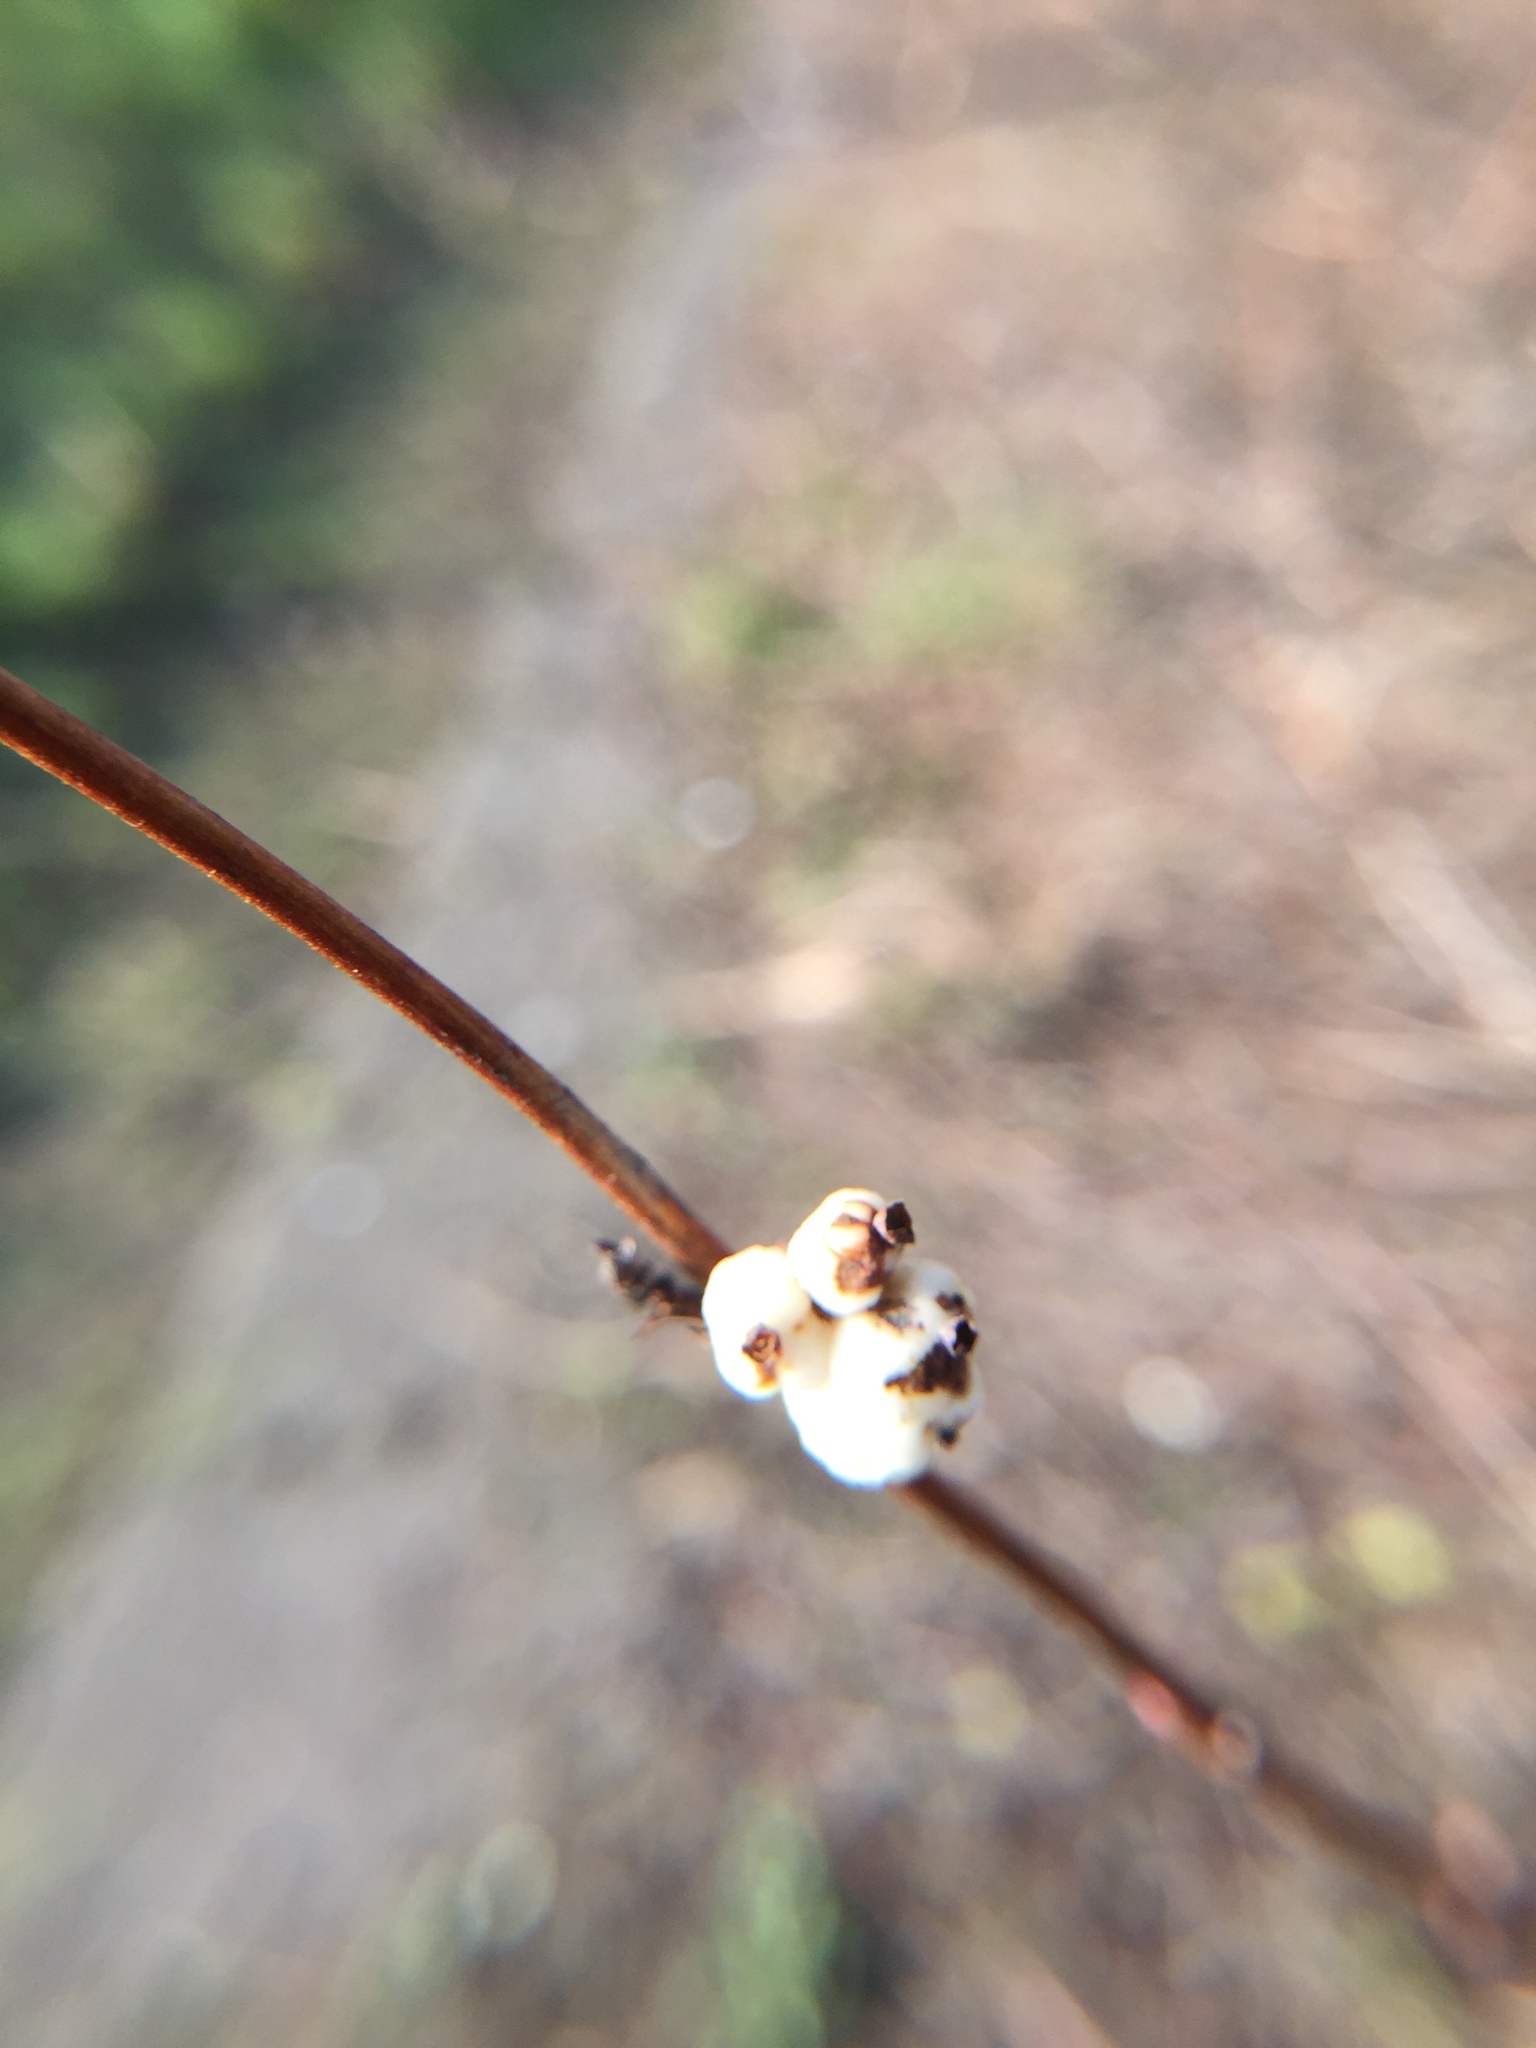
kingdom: Plantae
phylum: Tracheophyta
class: Magnoliopsida
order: Dipsacales
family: Caprifoliaceae
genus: Symphoricarpos
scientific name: Symphoricarpos albus
